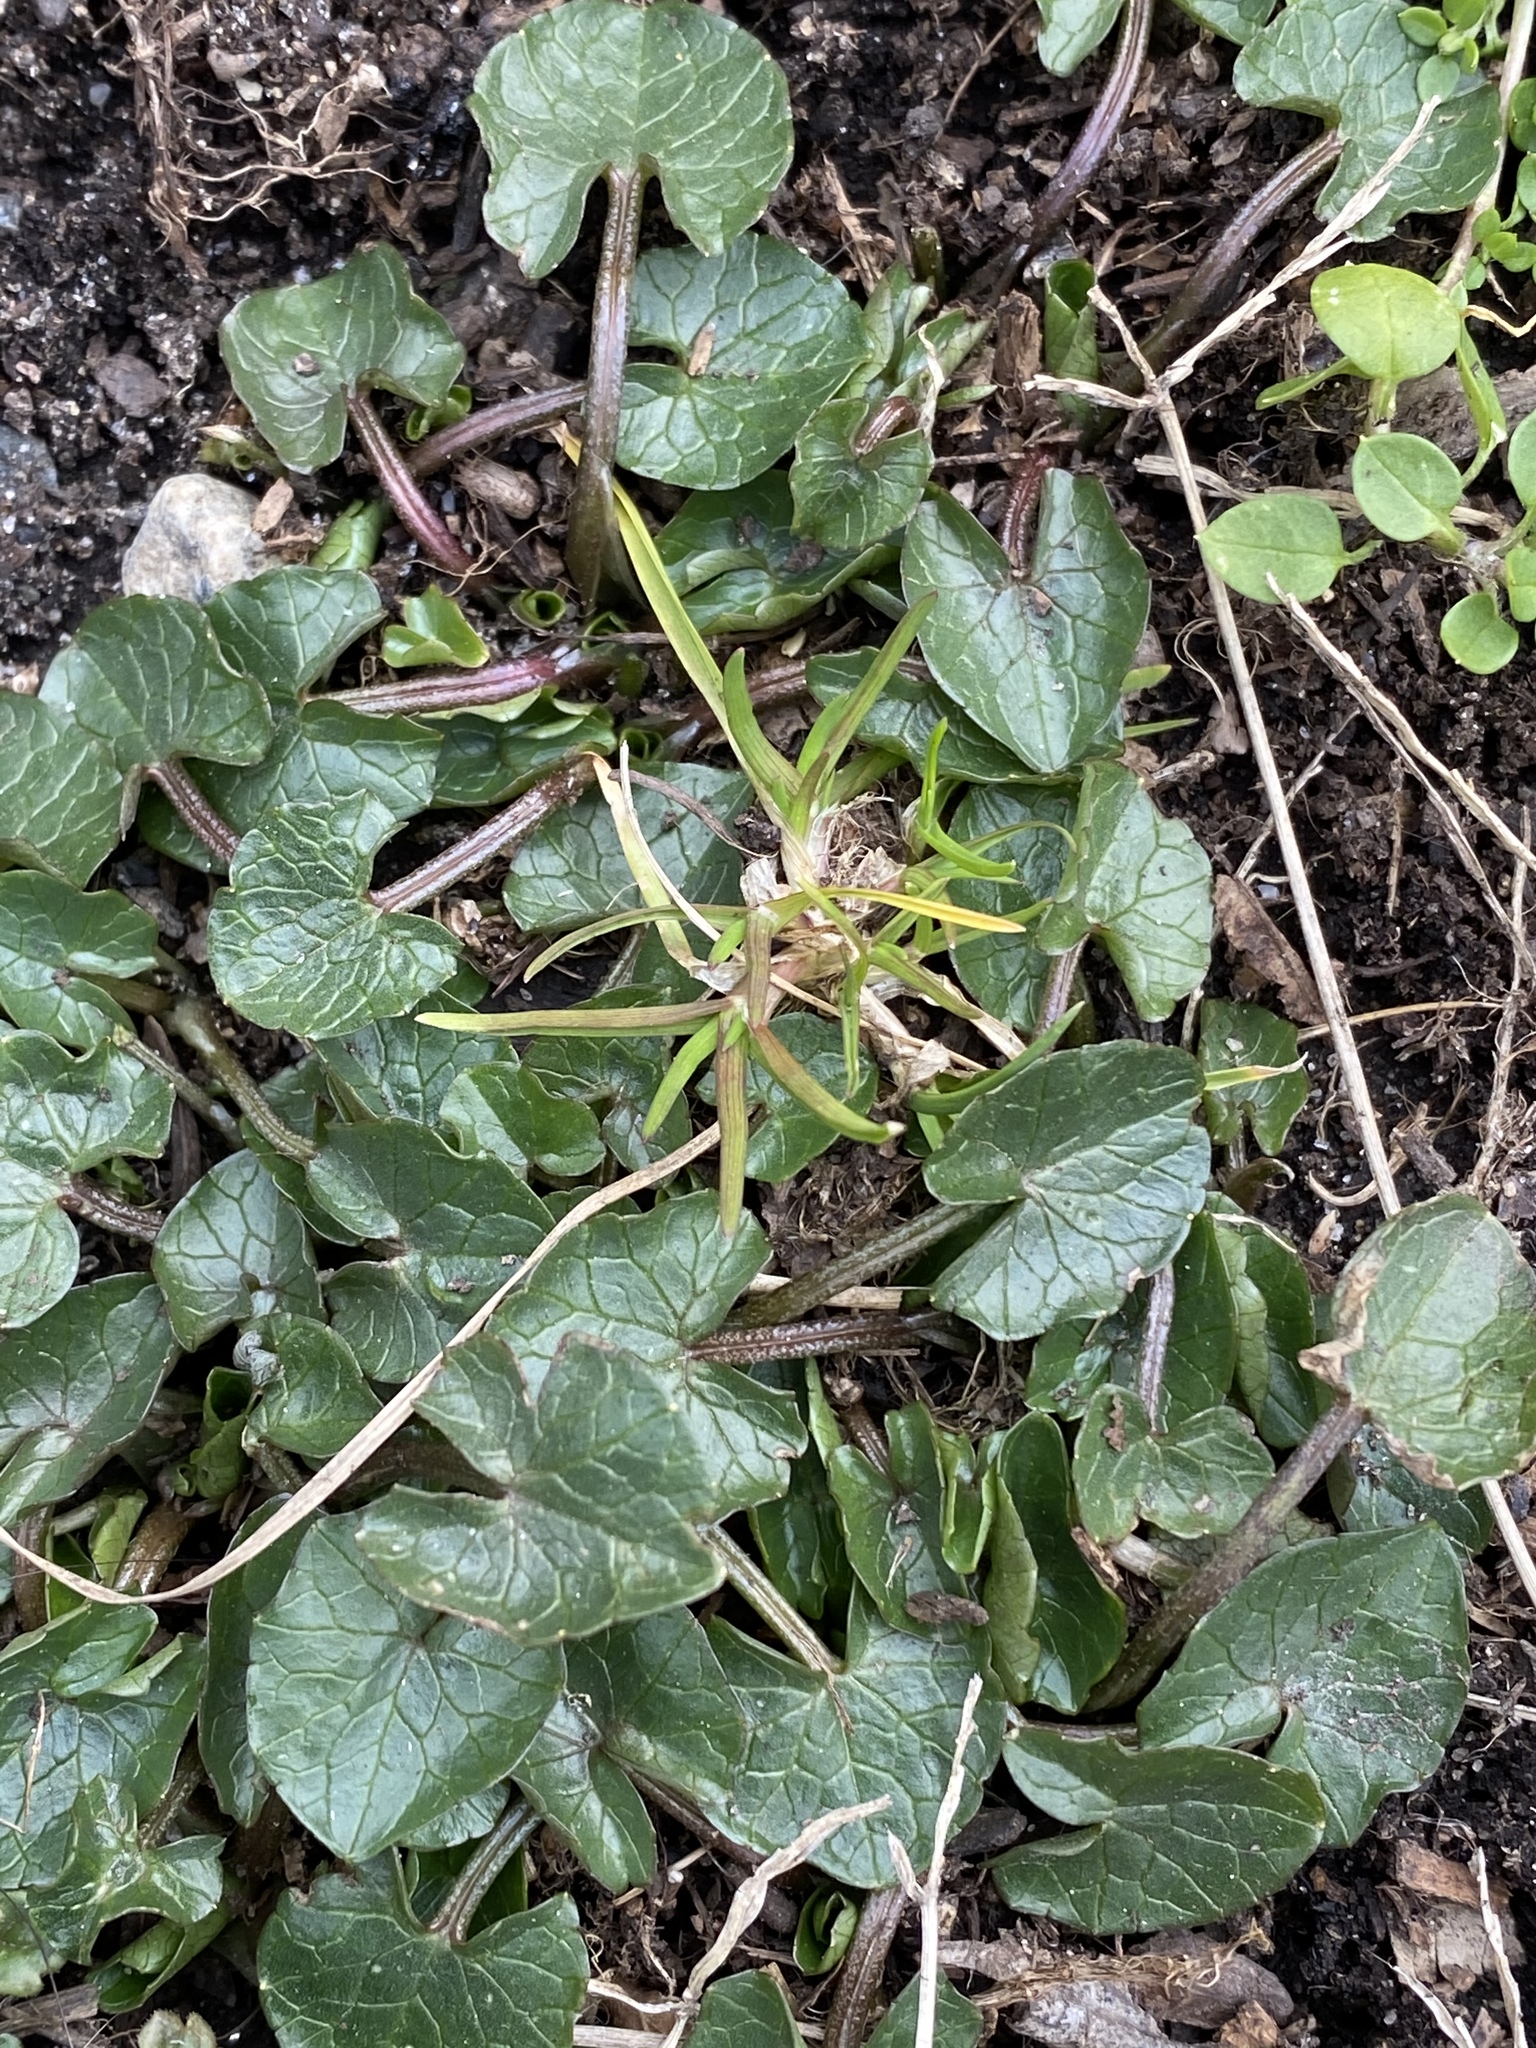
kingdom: Plantae
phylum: Tracheophyta
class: Magnoliopsida
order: Ranunculales
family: Ranunculaceae
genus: Ficaria
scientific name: Ficaria verna
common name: Lesser celandine
